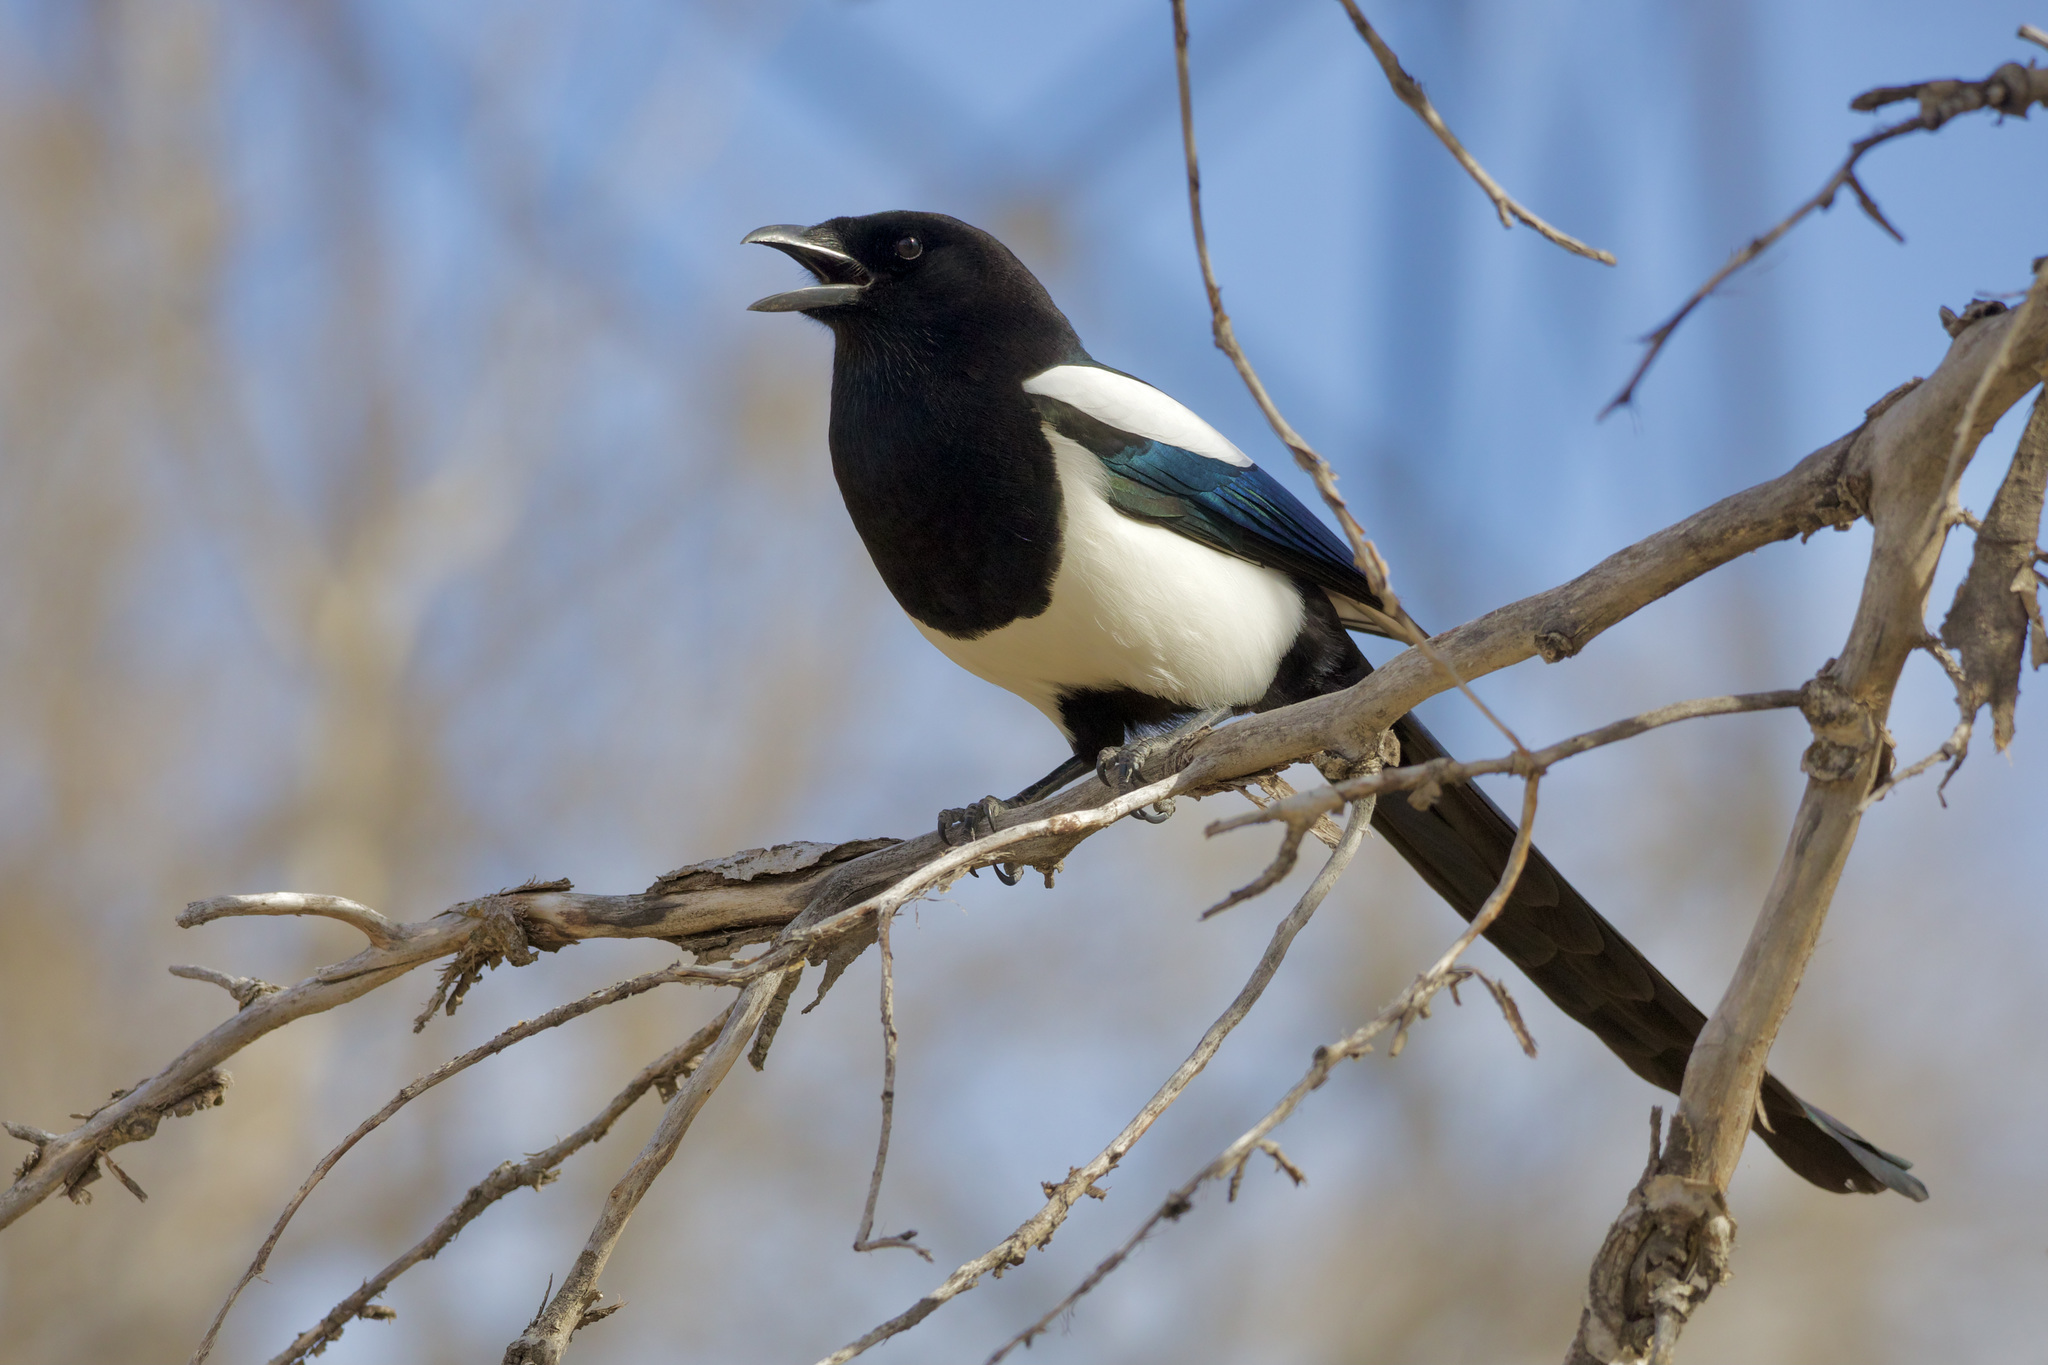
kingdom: Animalia
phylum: Chordata
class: Aves
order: Passeriformes
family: Corvidae
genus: Pica
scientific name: Pica hudsonia
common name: Black-billed magpie
